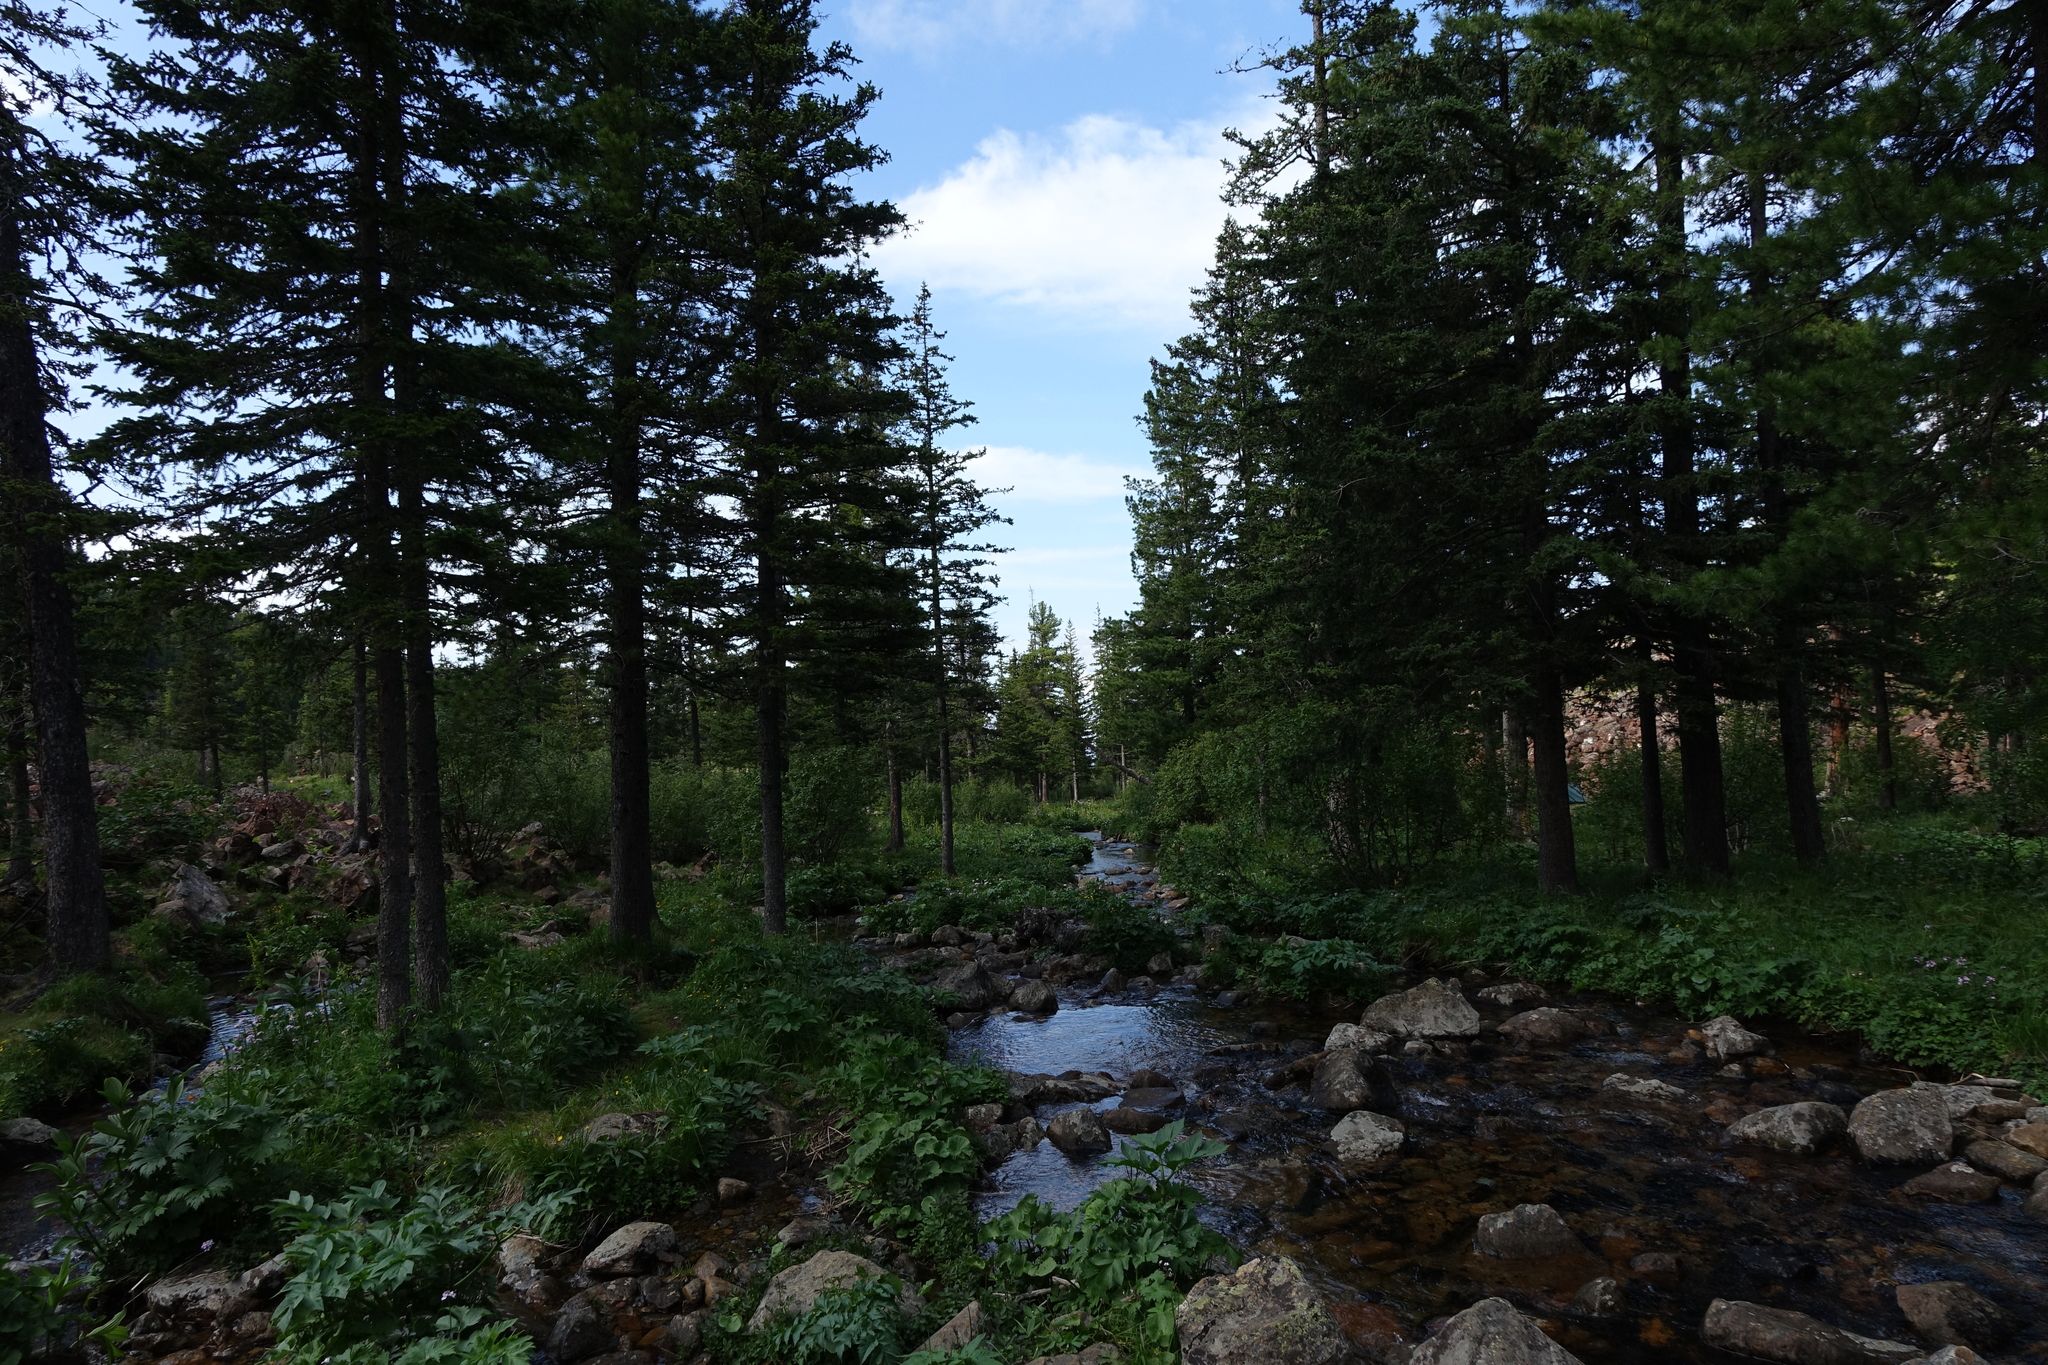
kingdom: Plantae
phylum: Tracheophyta
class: Pinopsida
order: Pinales
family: Pinaceae
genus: Picea
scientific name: Picea obovata
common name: Siberian spruce
